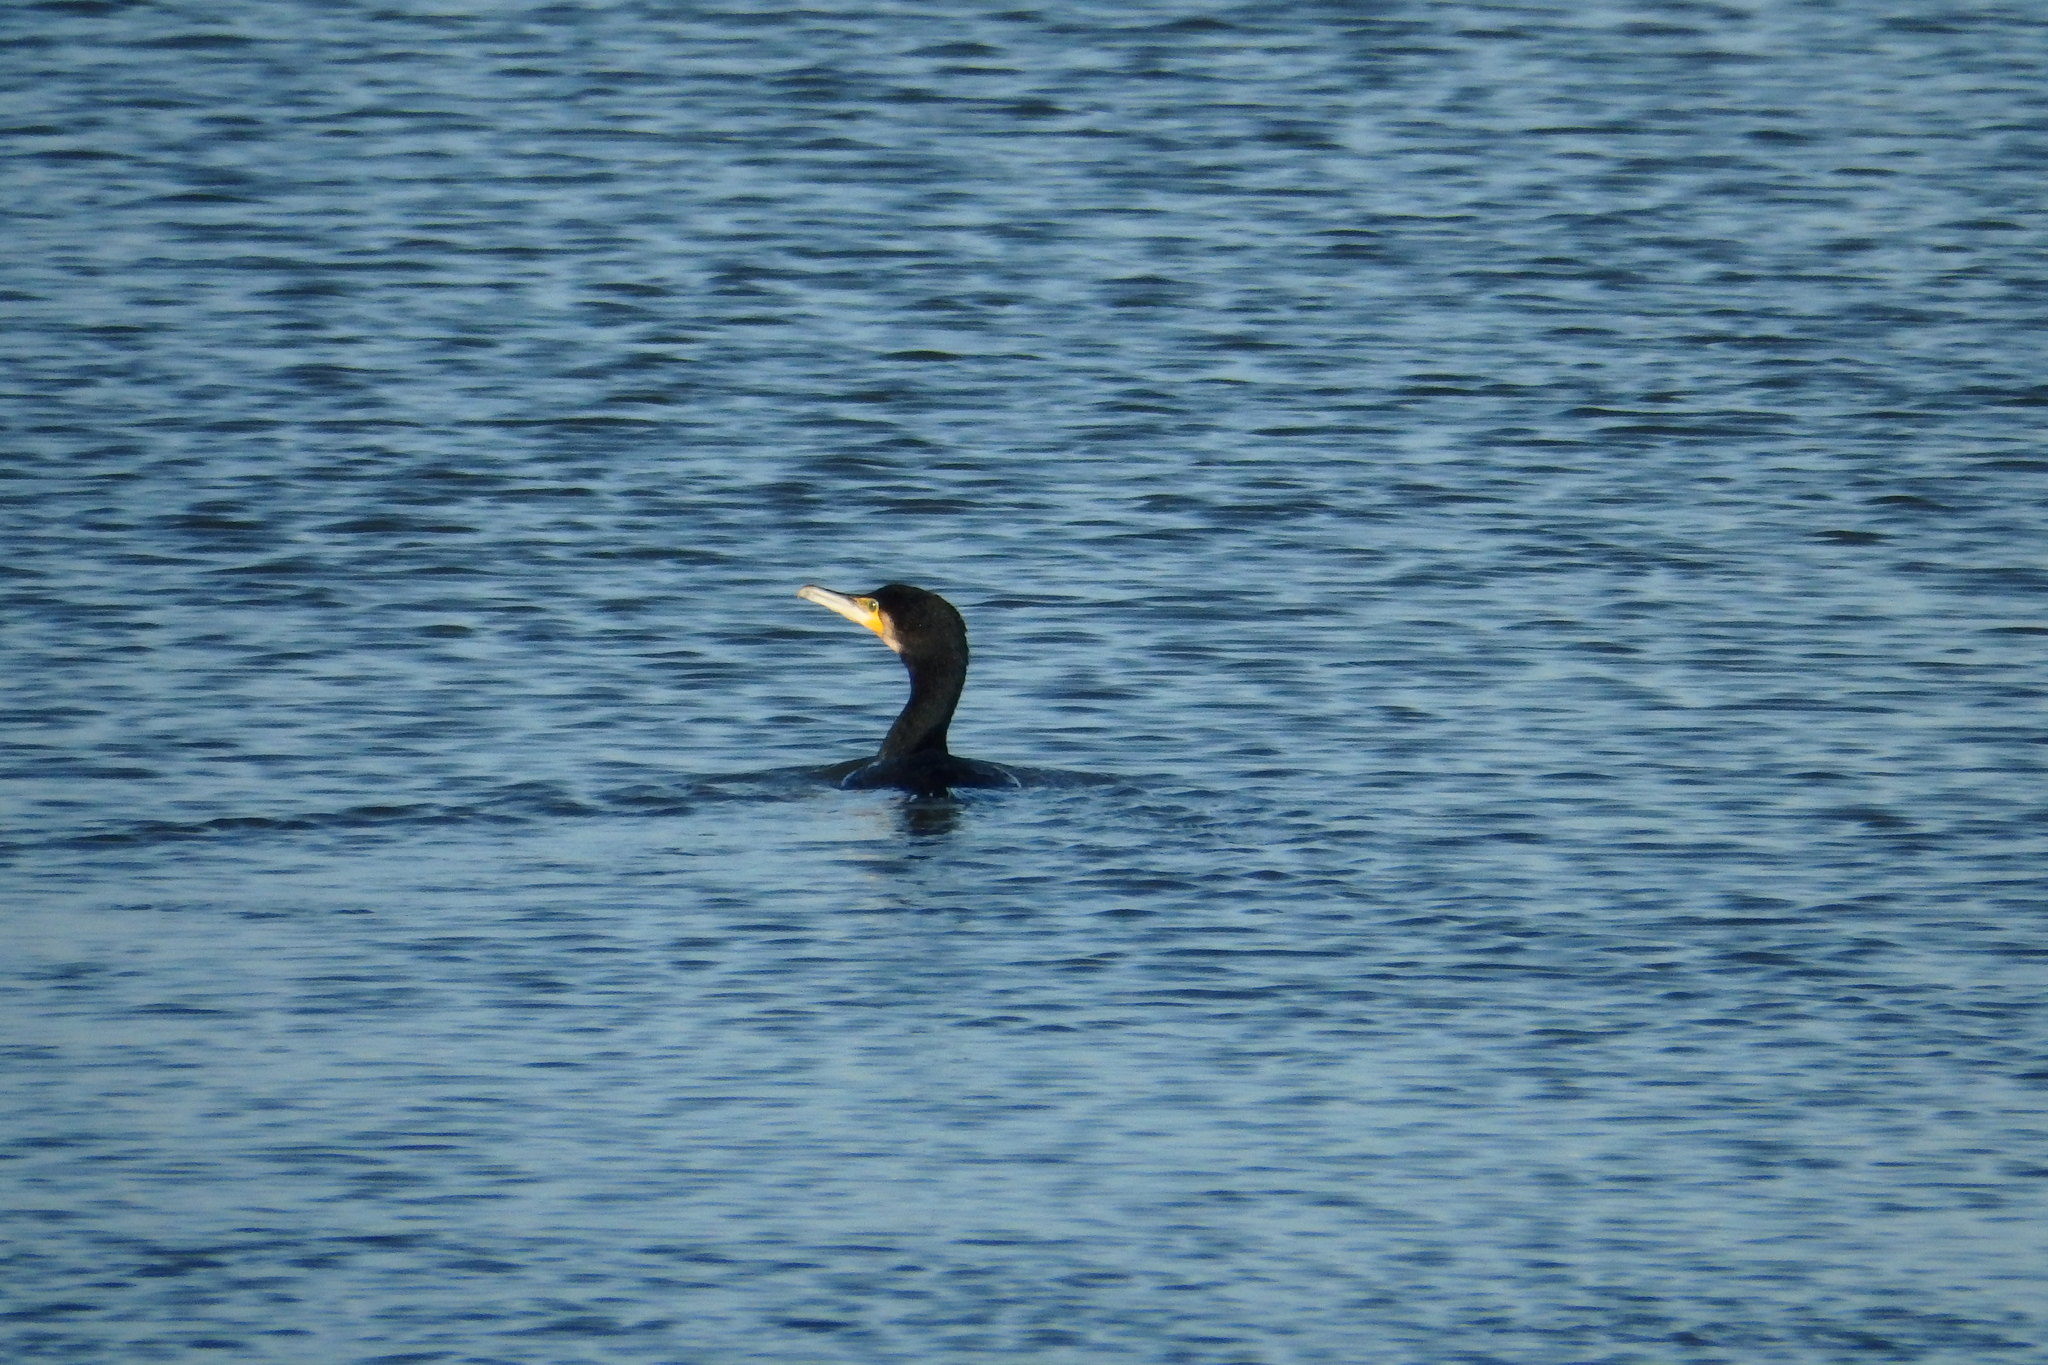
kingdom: Animalia
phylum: Chordata
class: Aves
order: Suliformes
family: Phalacrocoracidae
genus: Phalacrocorax
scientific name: Phalacrocorax carbo
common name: Great cormorant
